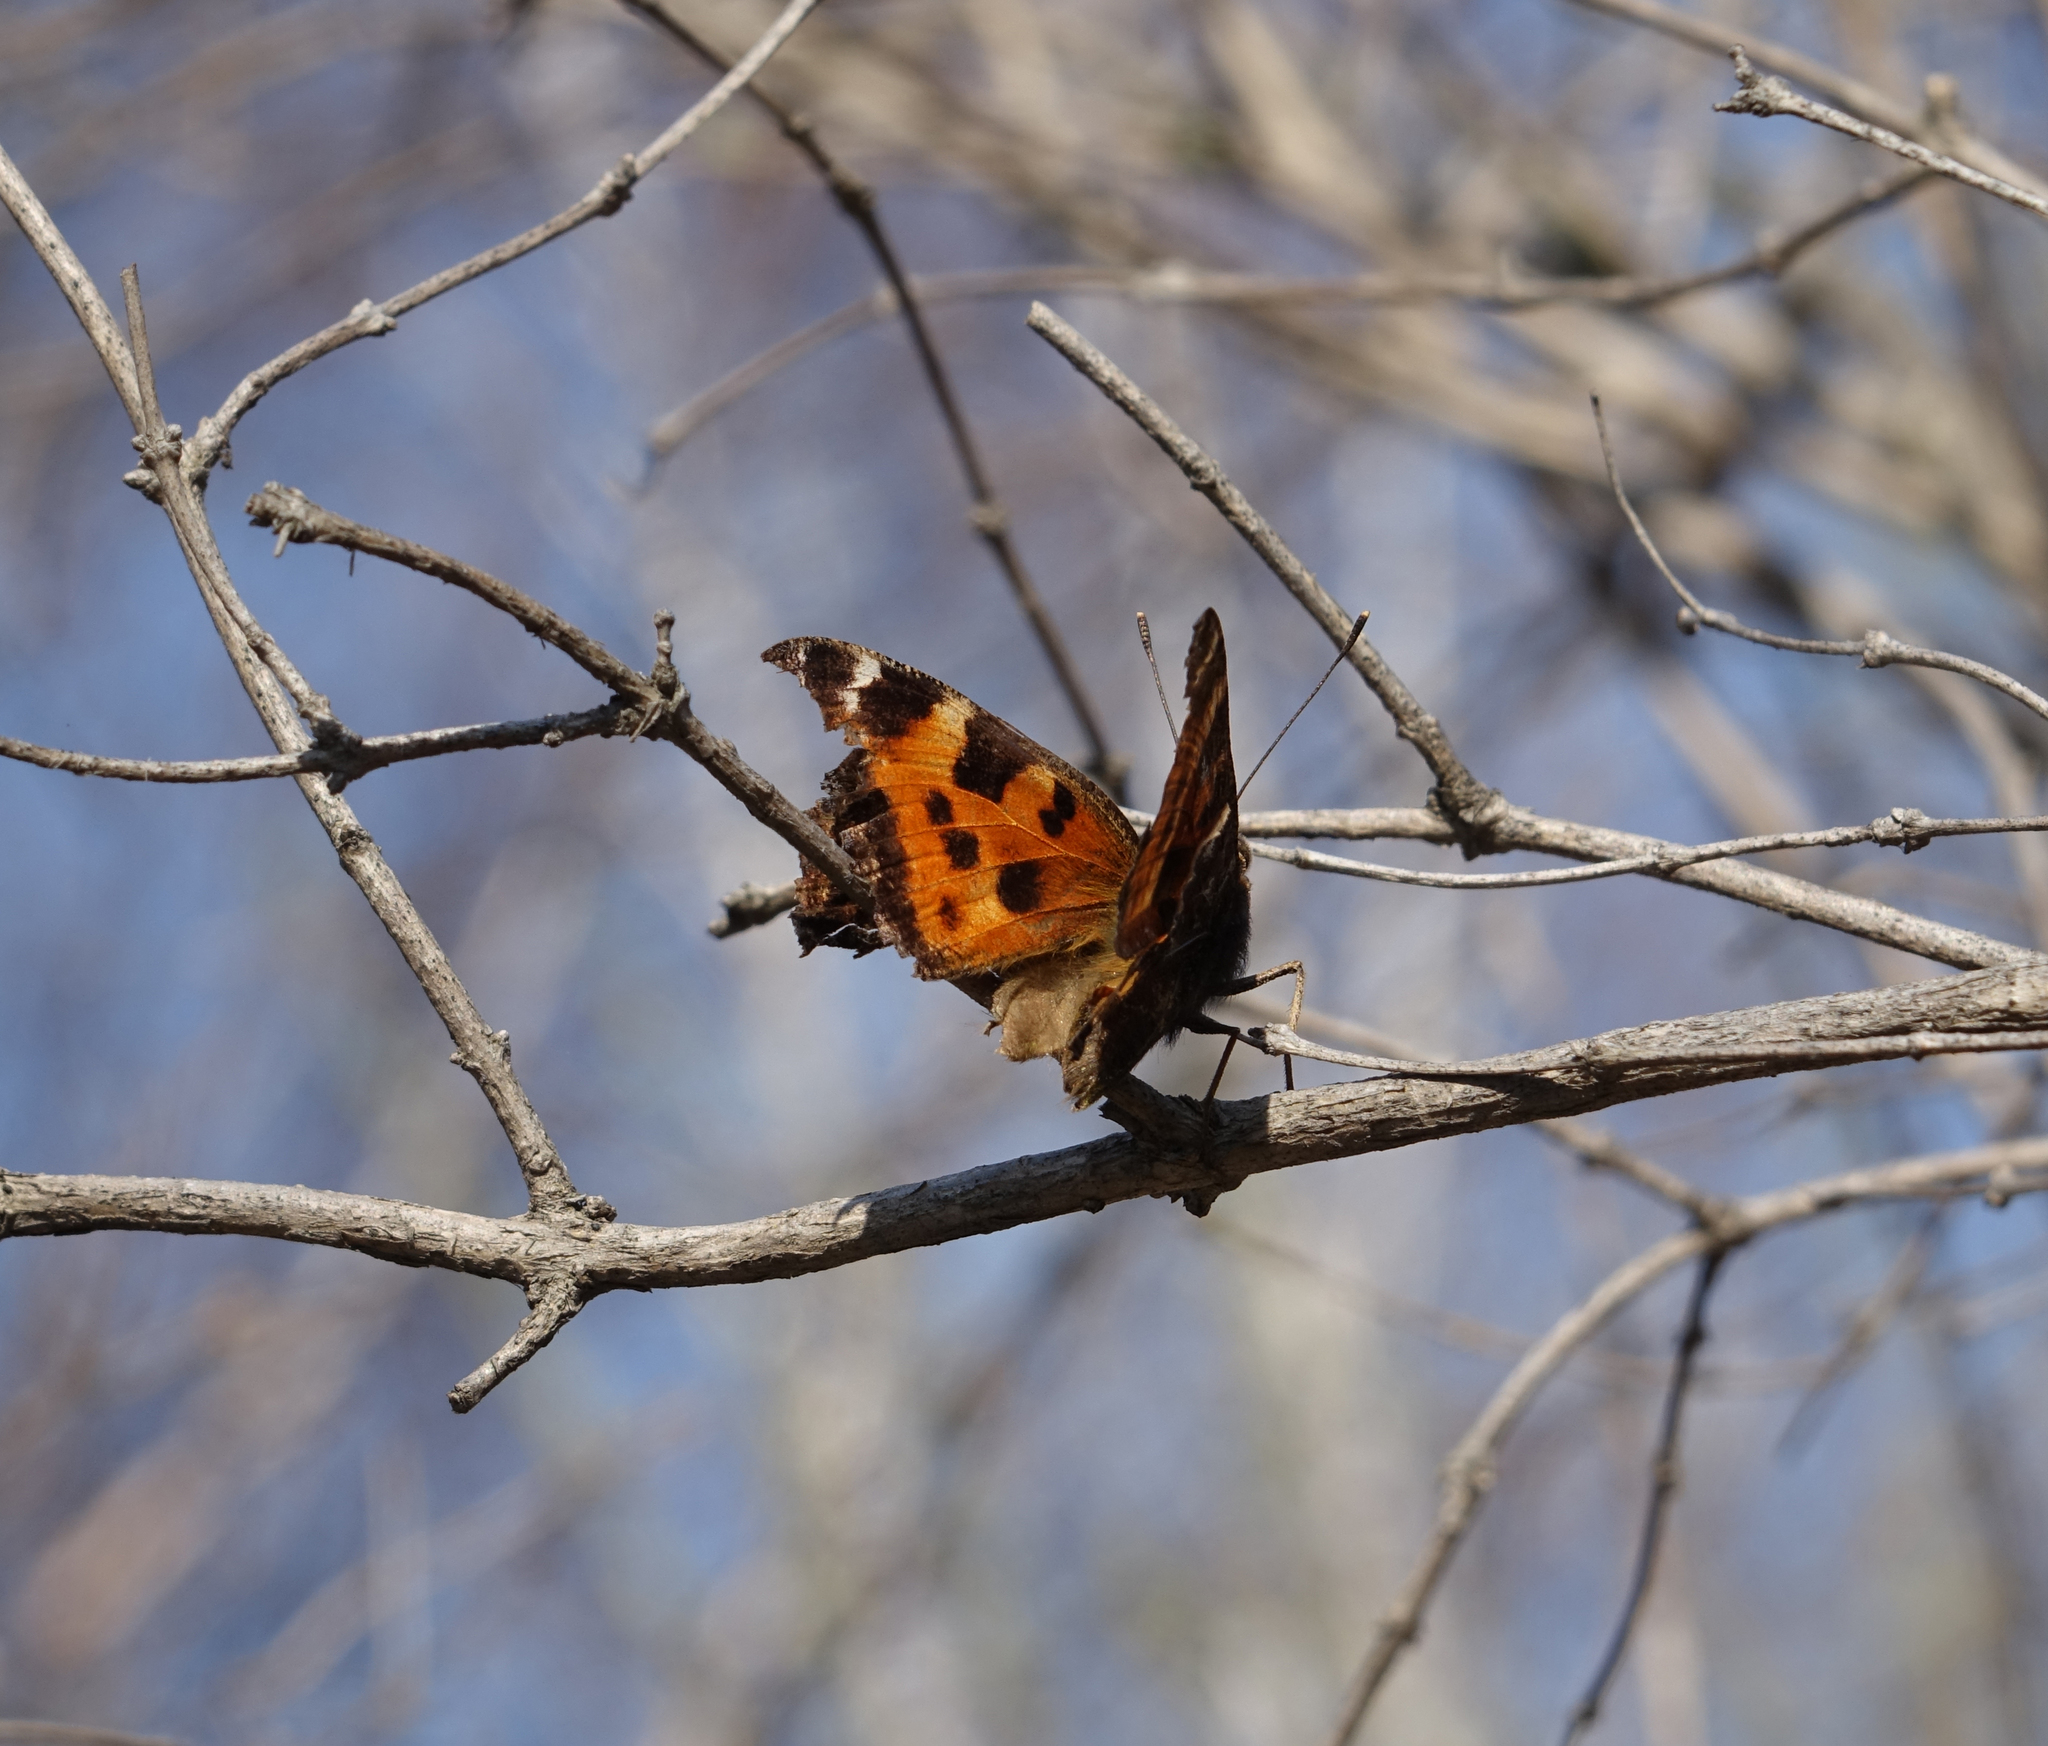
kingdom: Animalia
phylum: Arthropoda
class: Insecta
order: Lepidoptera
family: Nymphalidae
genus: Nymphalis
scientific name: Nymphalis xanthomelas
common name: Scarce tortoiseshell
